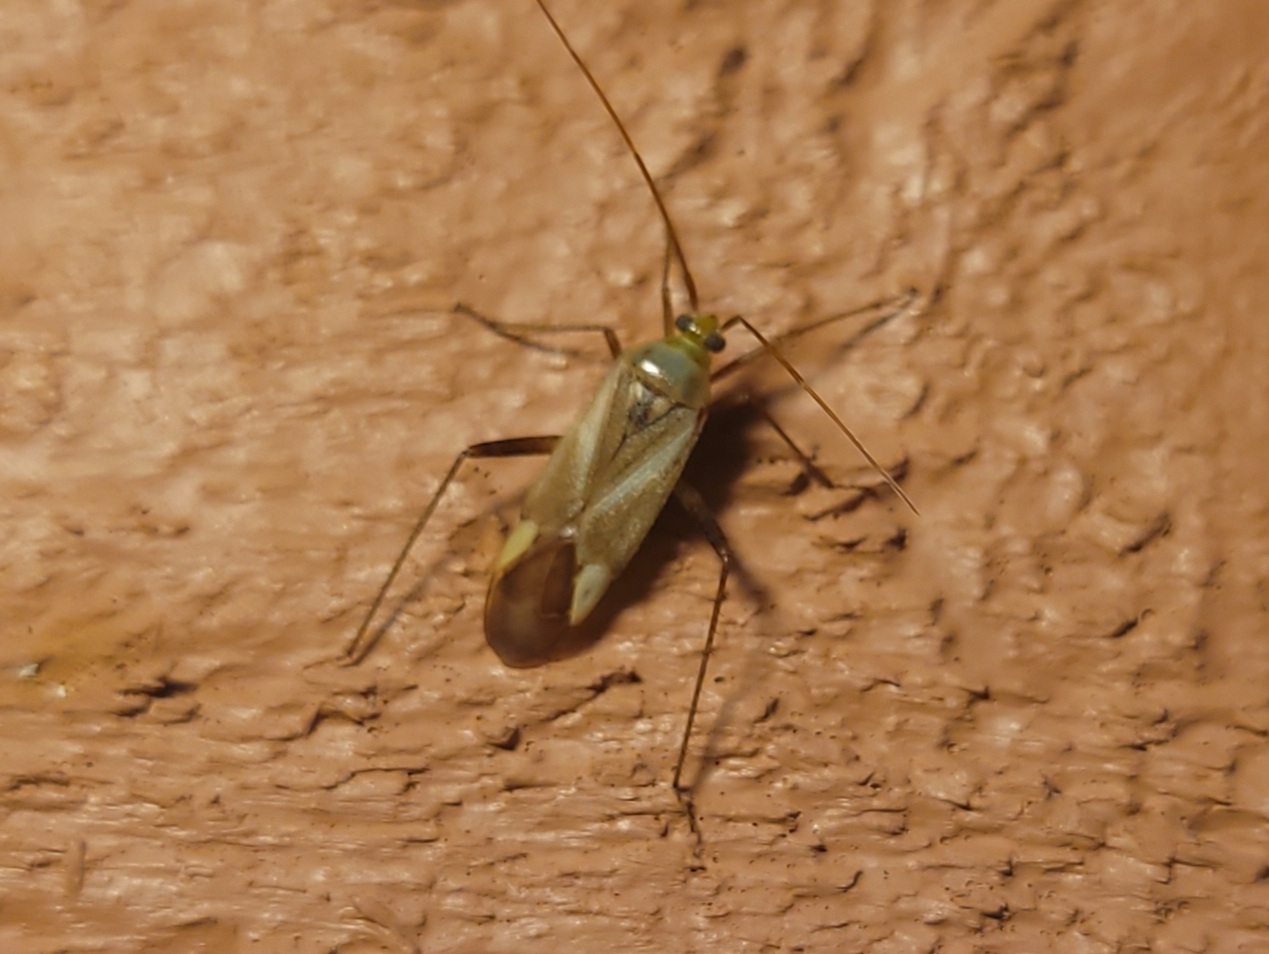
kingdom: Animalia
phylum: Arthropoda
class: Insecta
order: Hemiptera
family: Miridae
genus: Adelphocoris
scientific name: Adelphocoris lineolatus
